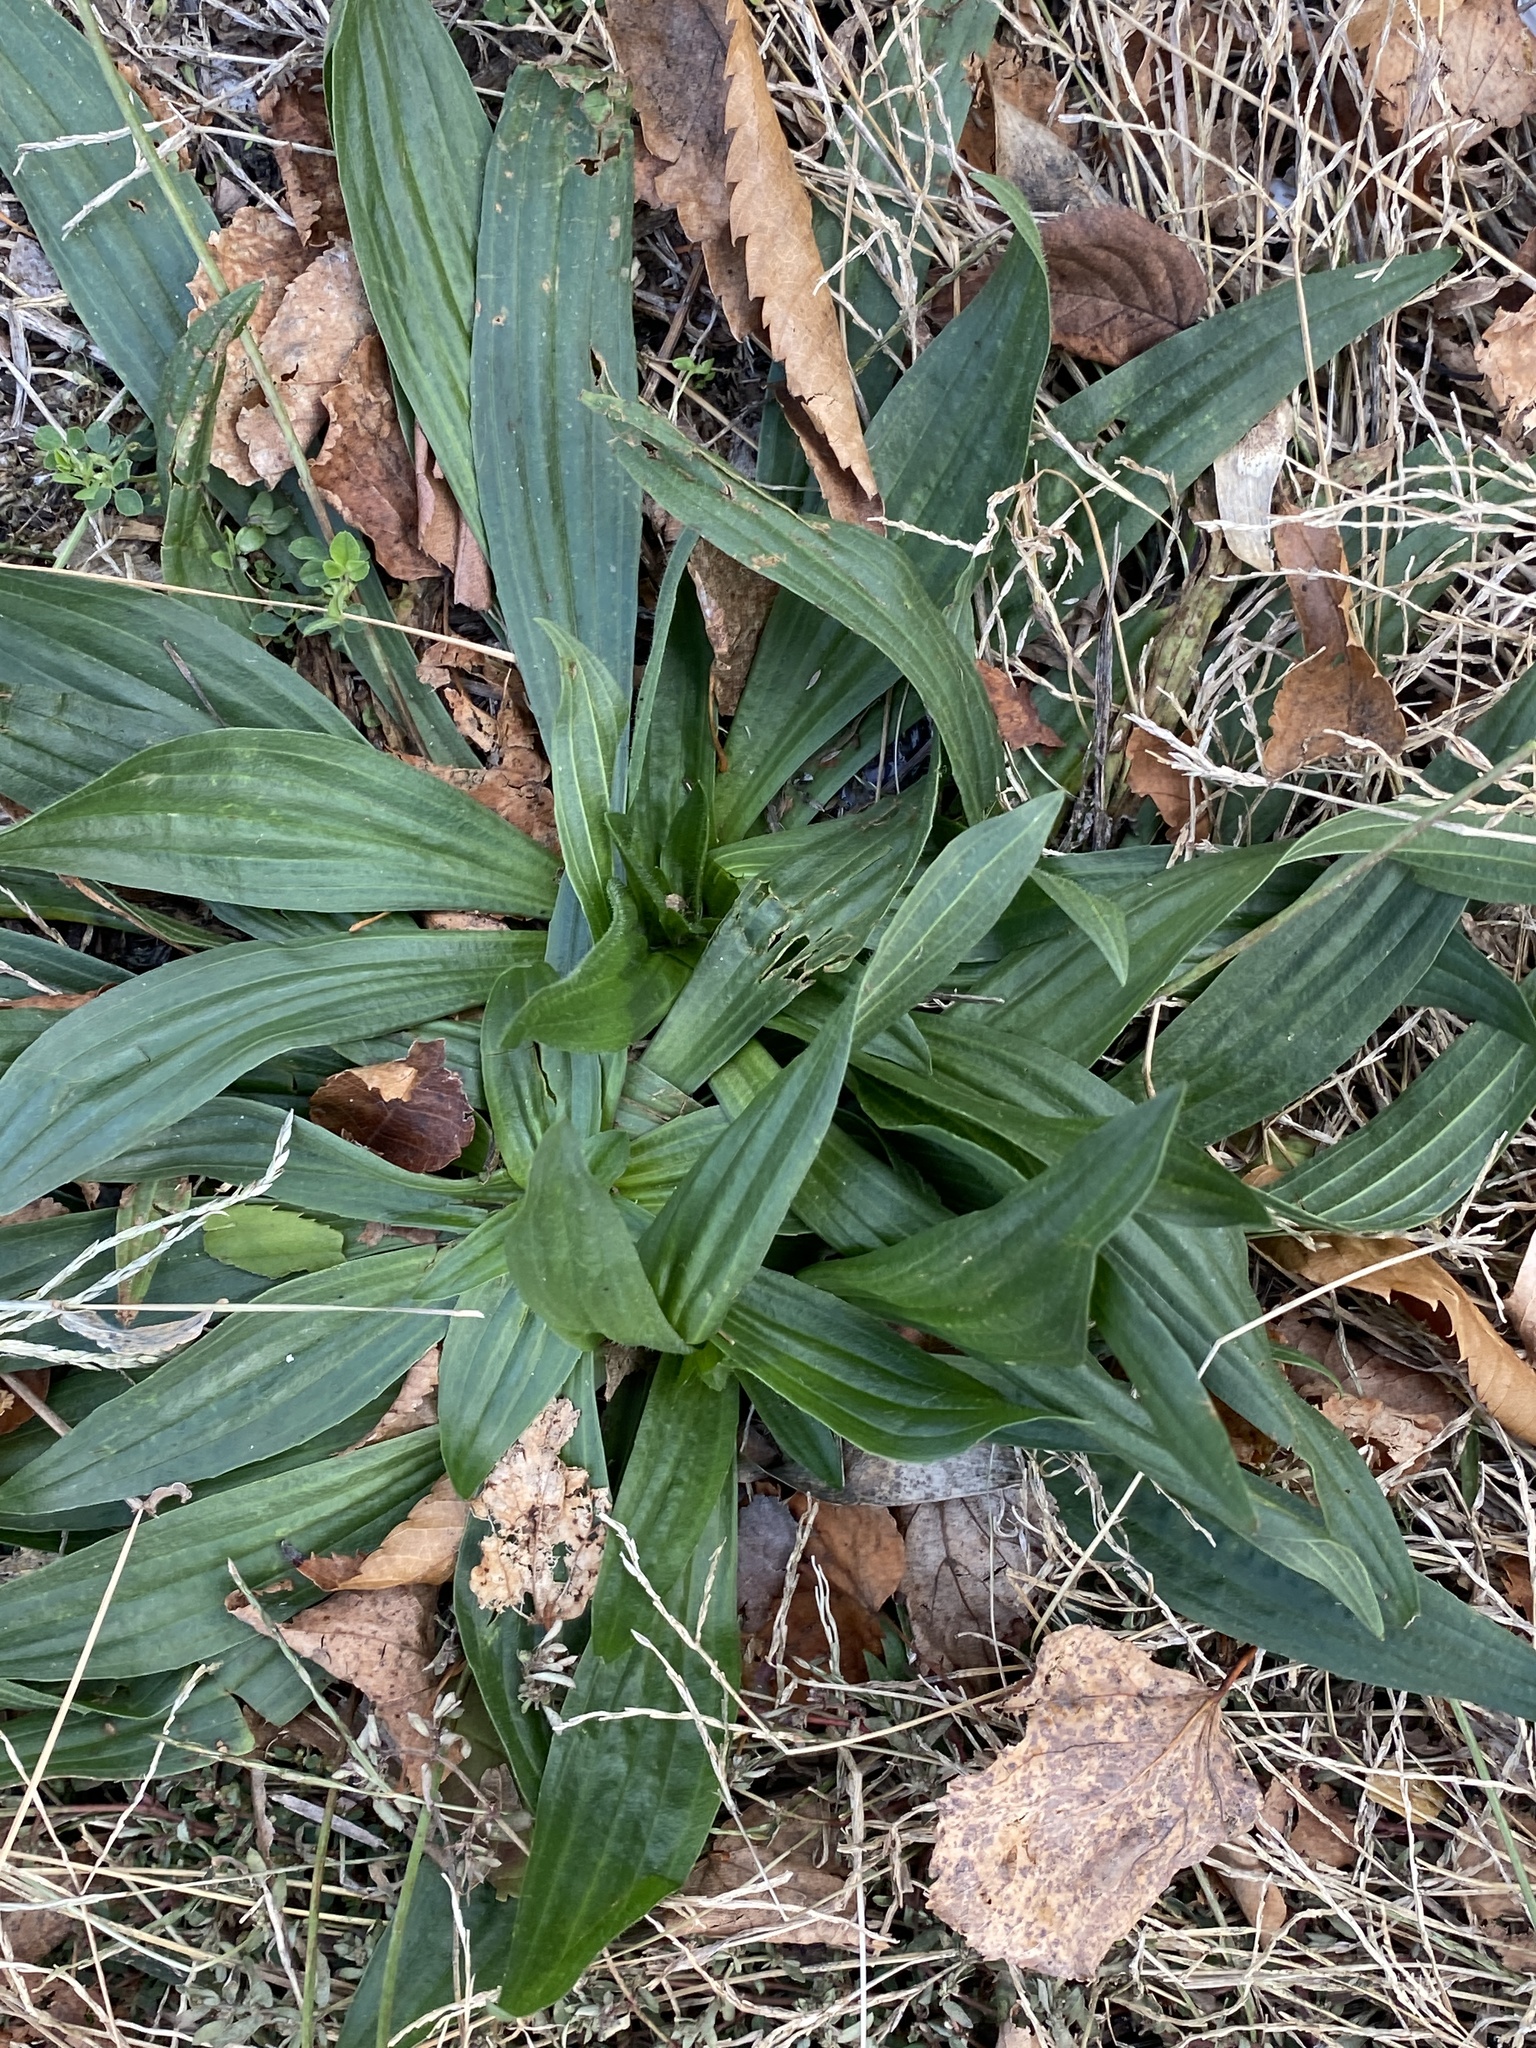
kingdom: Plantae
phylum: Tracheophyta
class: Magnoliopsida
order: Lamiales
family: Plantaginaceae
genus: Plantago
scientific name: Plantago lanceolata
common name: Ribwort plantain
